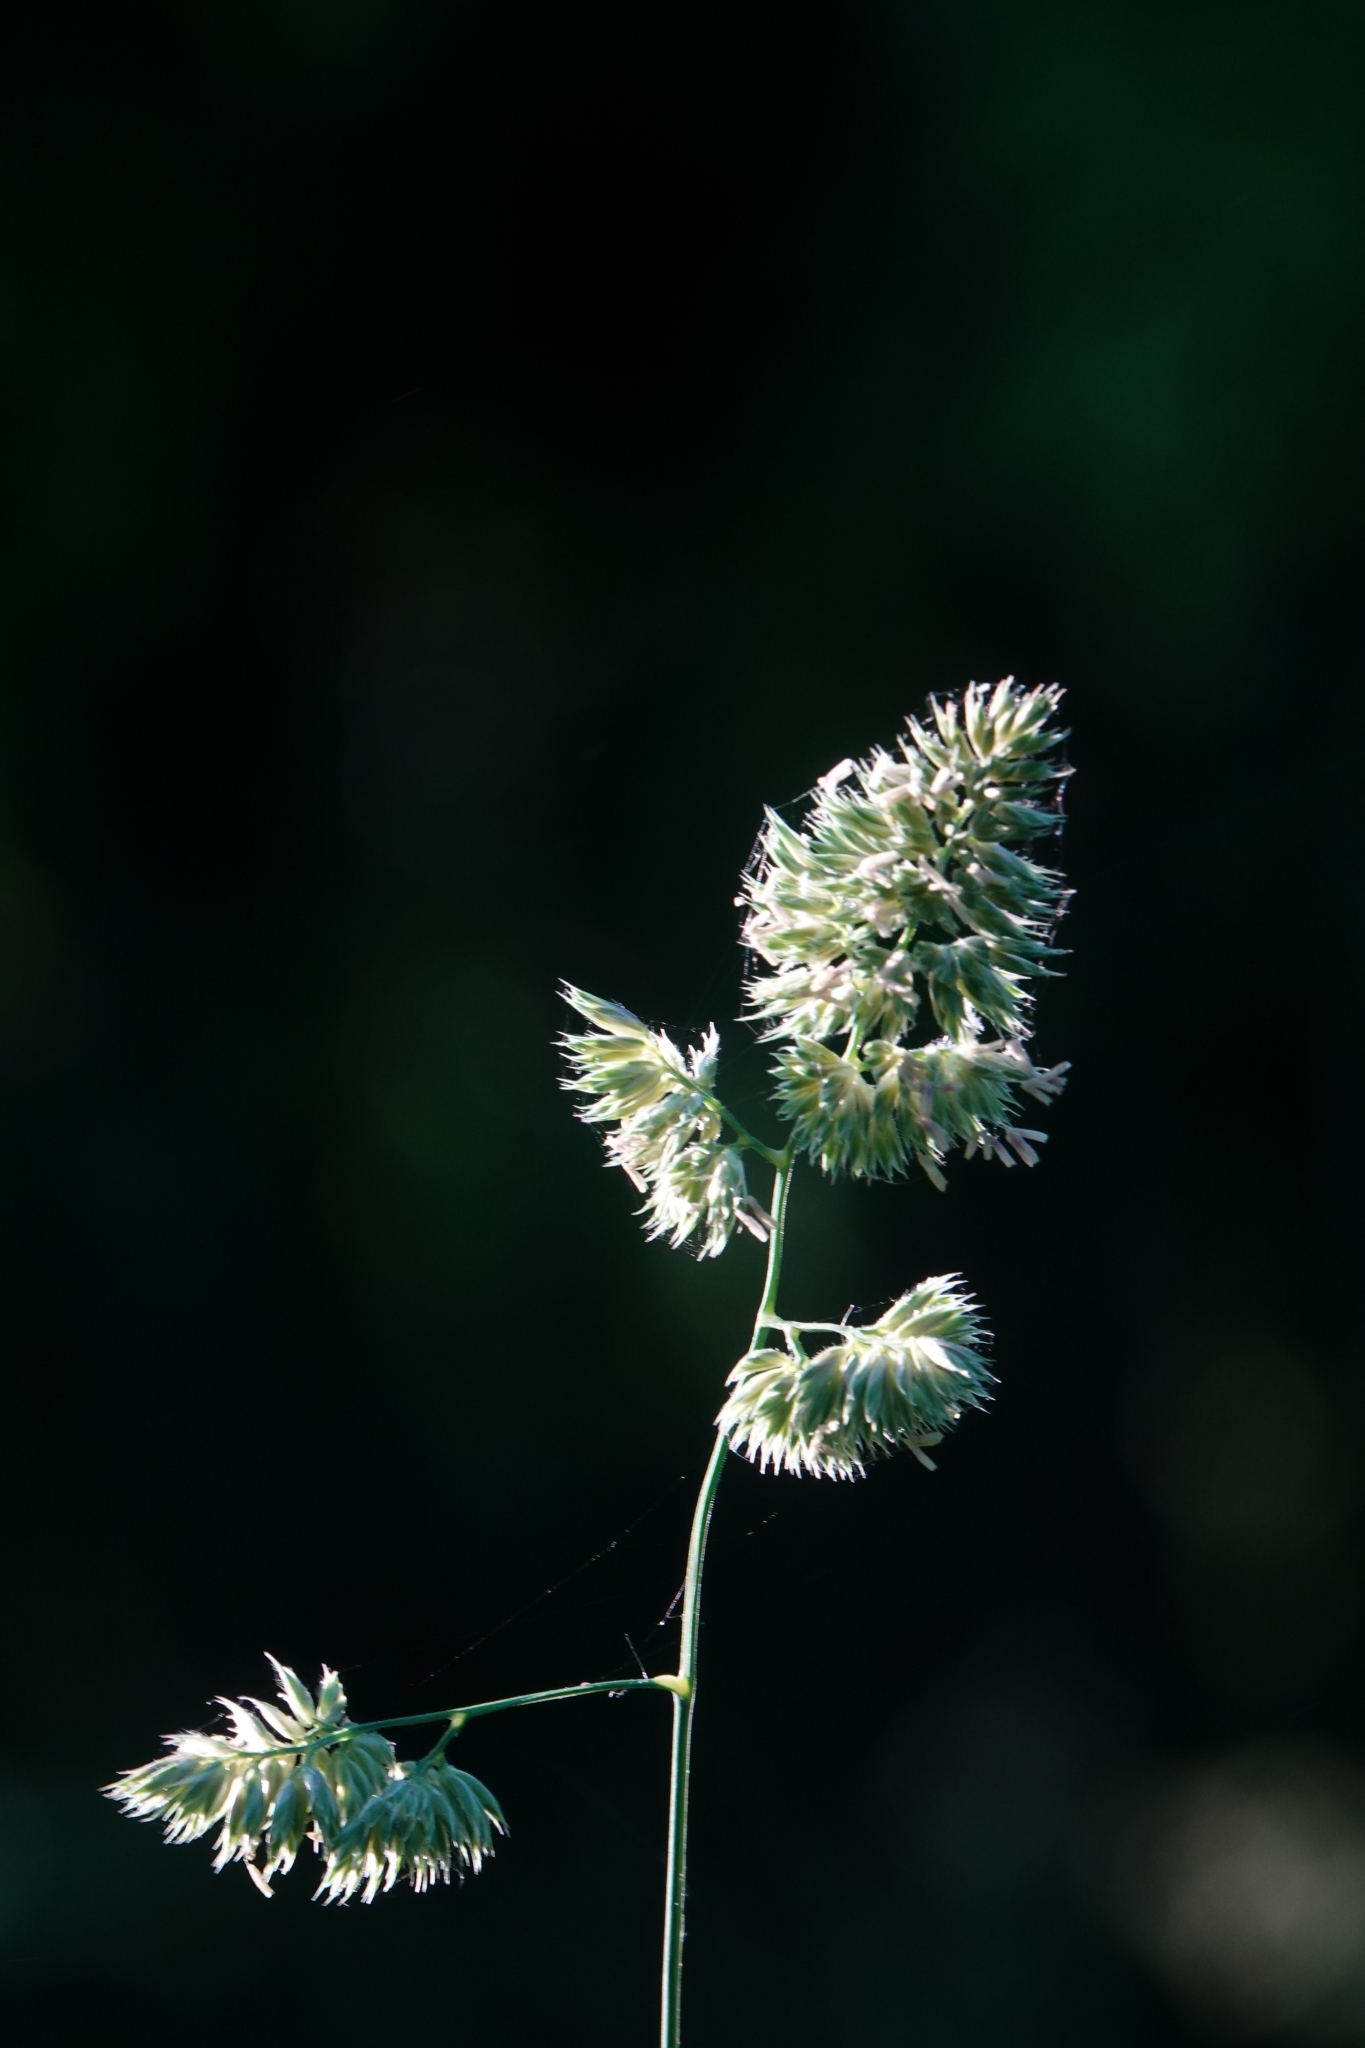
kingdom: Plantae
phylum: Tracheophyta
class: Liliopsida
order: Poales
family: Poaceae
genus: Dactylis
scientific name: Dactylis glomerata
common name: Orchardgrass
